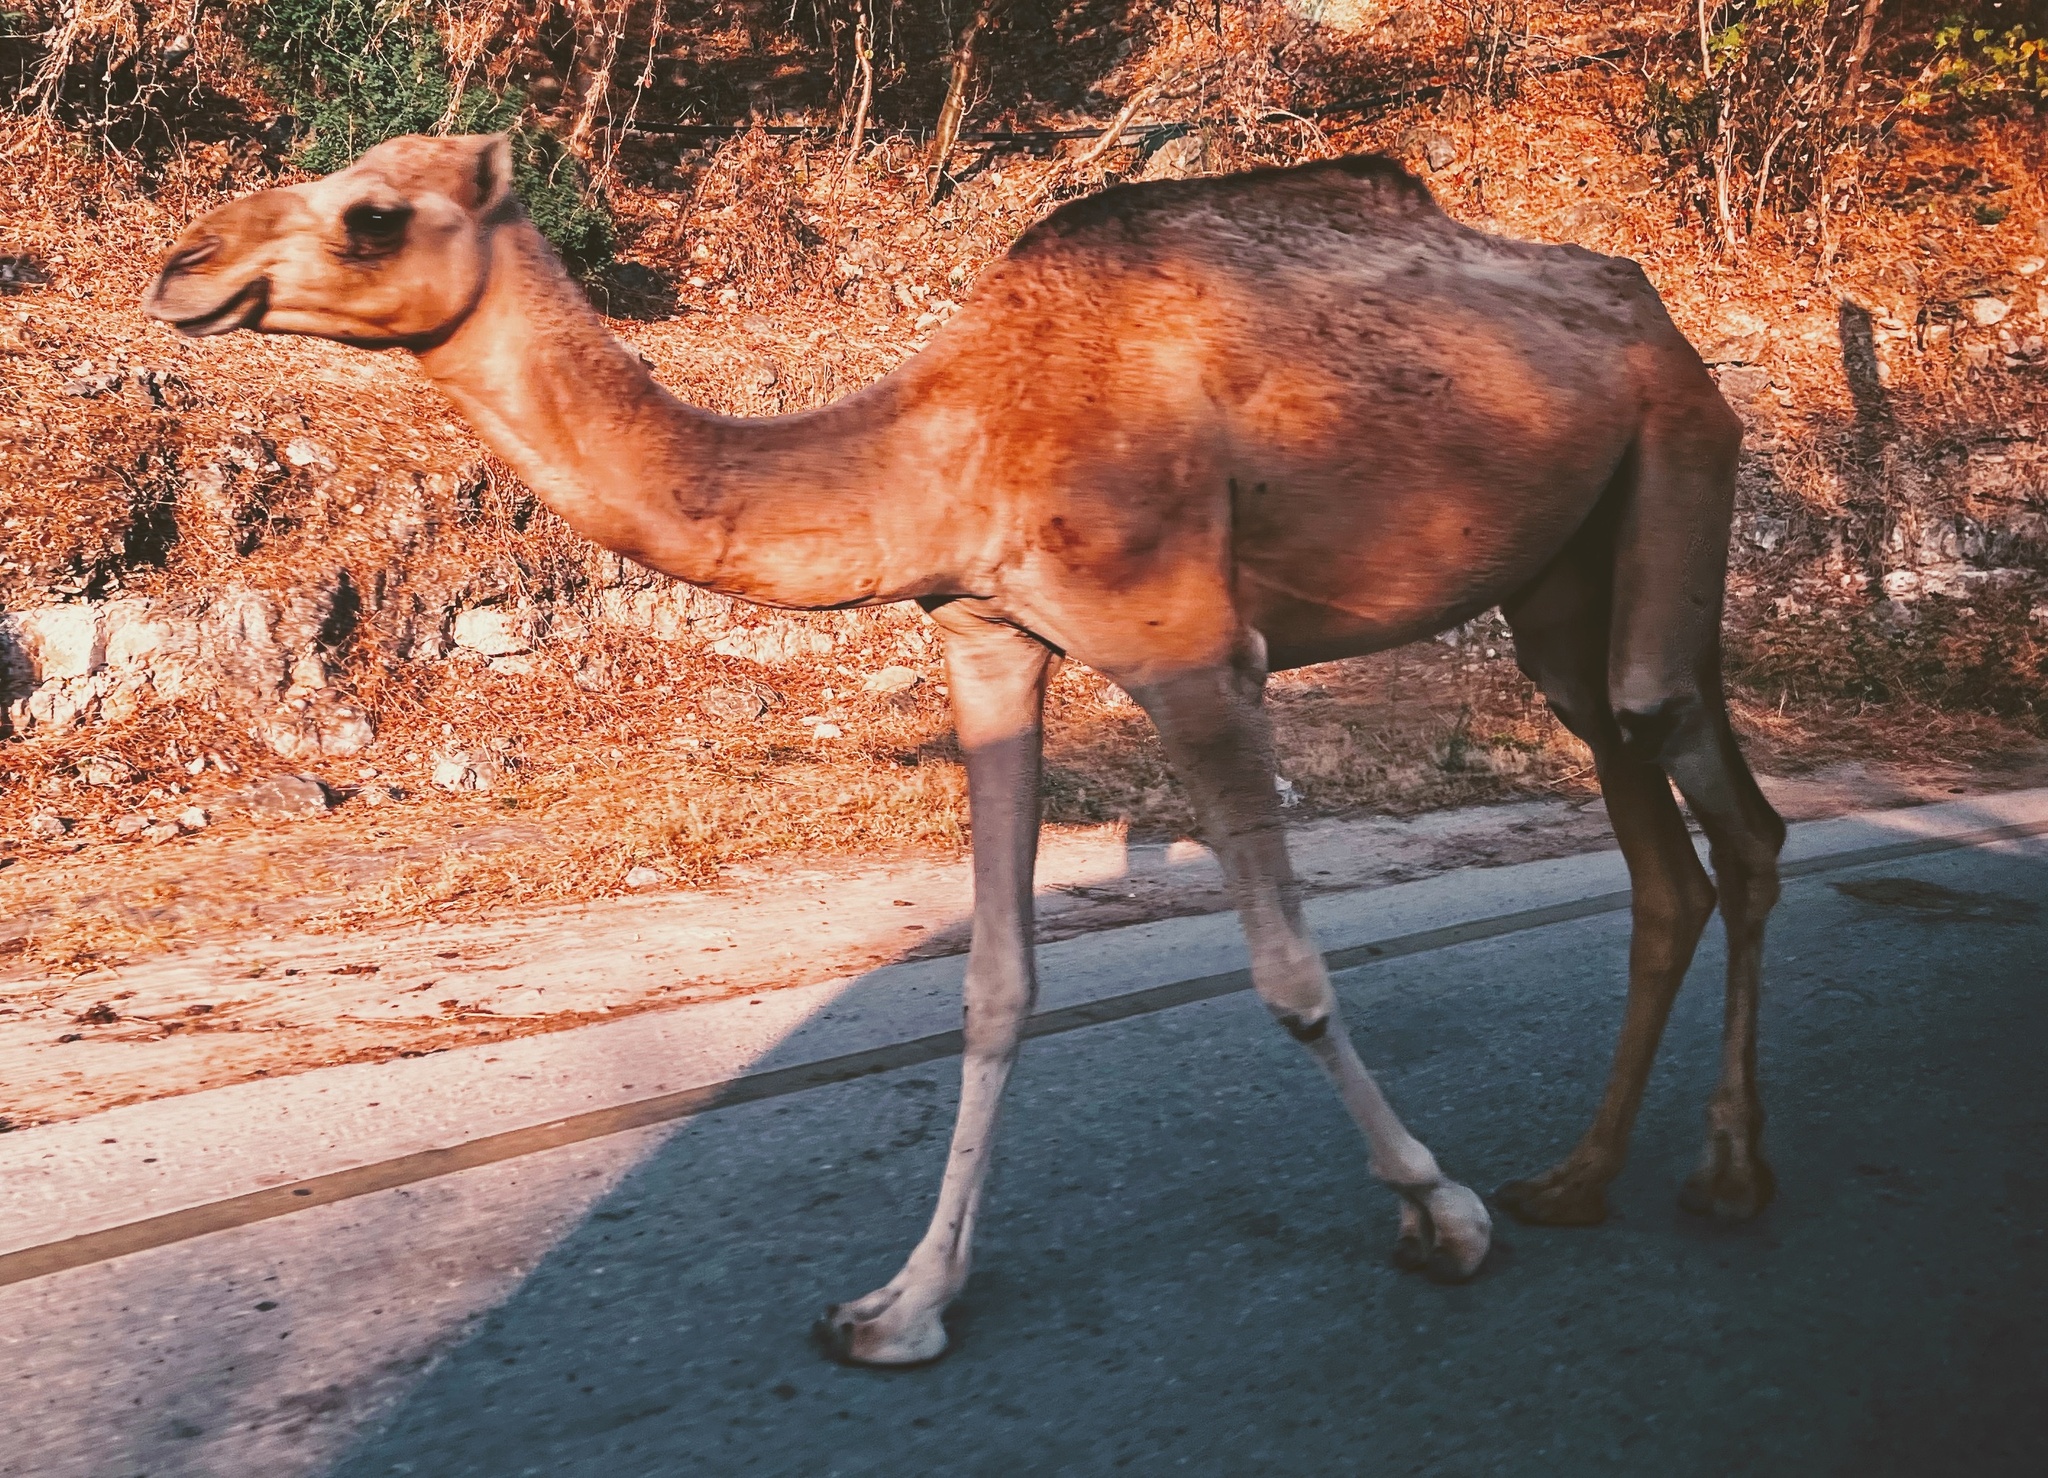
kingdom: Animalia
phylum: Chordata
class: Mammalia
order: Artiodactyla
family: Camelidae
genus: Camelus
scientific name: Camelus dromedarius
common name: One-humped camel
